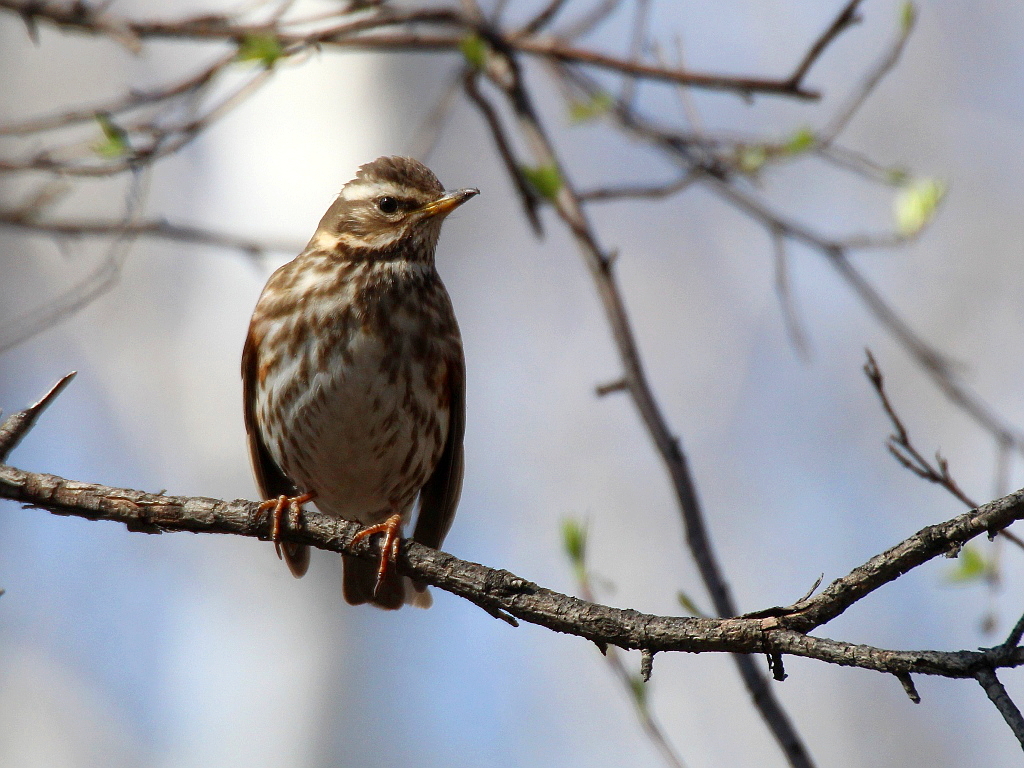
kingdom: Animalia
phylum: Chordata
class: Aves
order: Passeriformes
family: Turdidae
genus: Turdus
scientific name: Turdus iliacus
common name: Redwing
